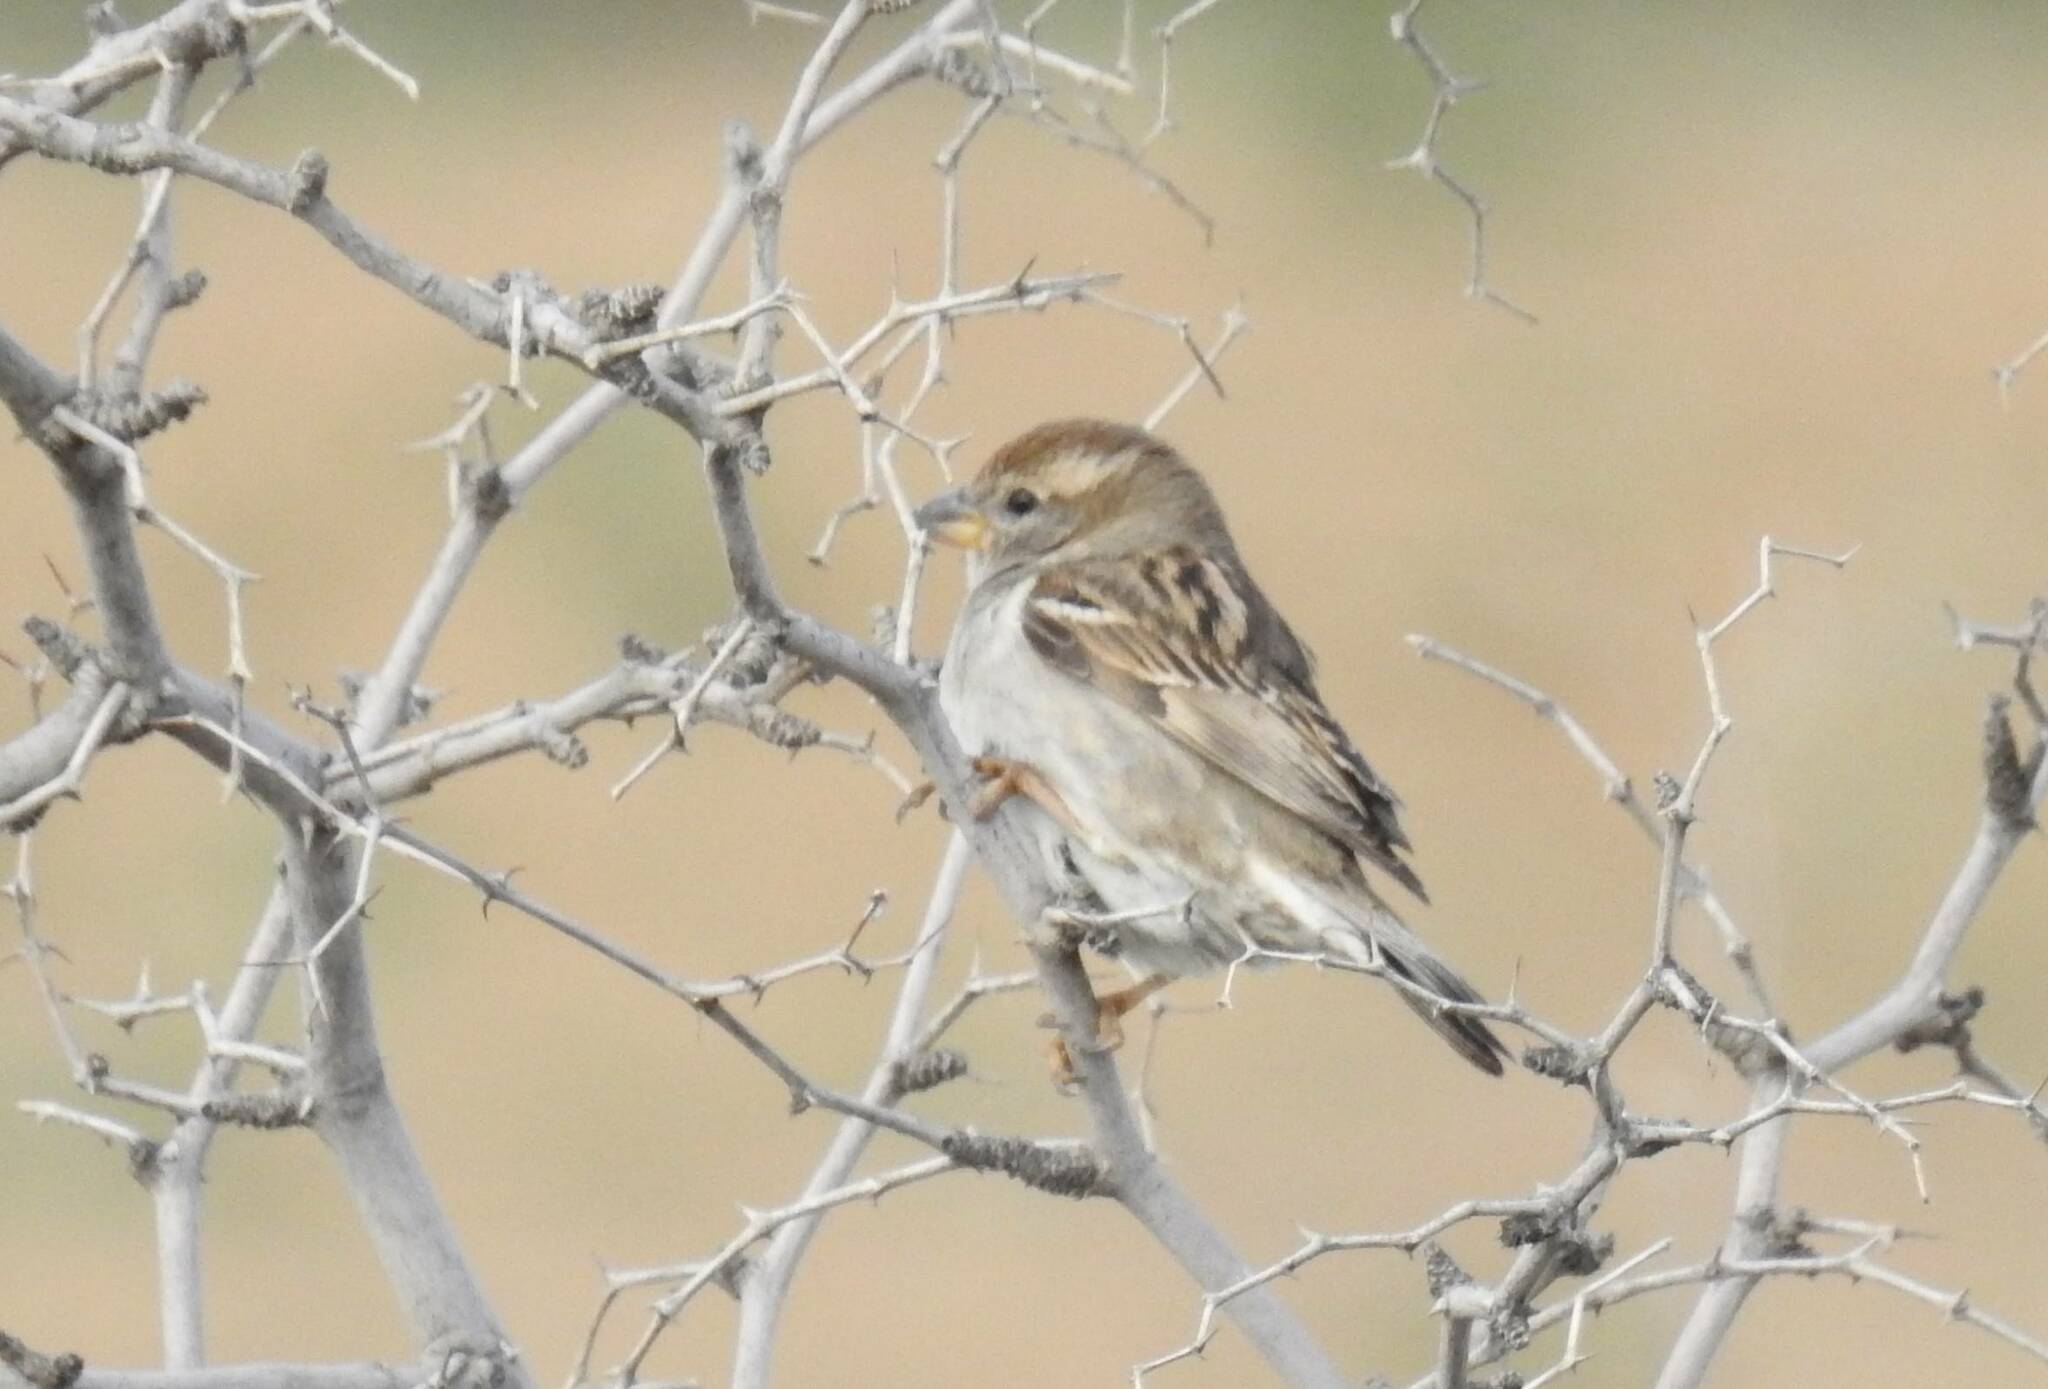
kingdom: Animalia
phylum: Chordata
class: Aves
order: Passeriformes
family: Passeridae
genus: Passer
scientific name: Passer hispaniolensis
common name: Spanish sparrow
